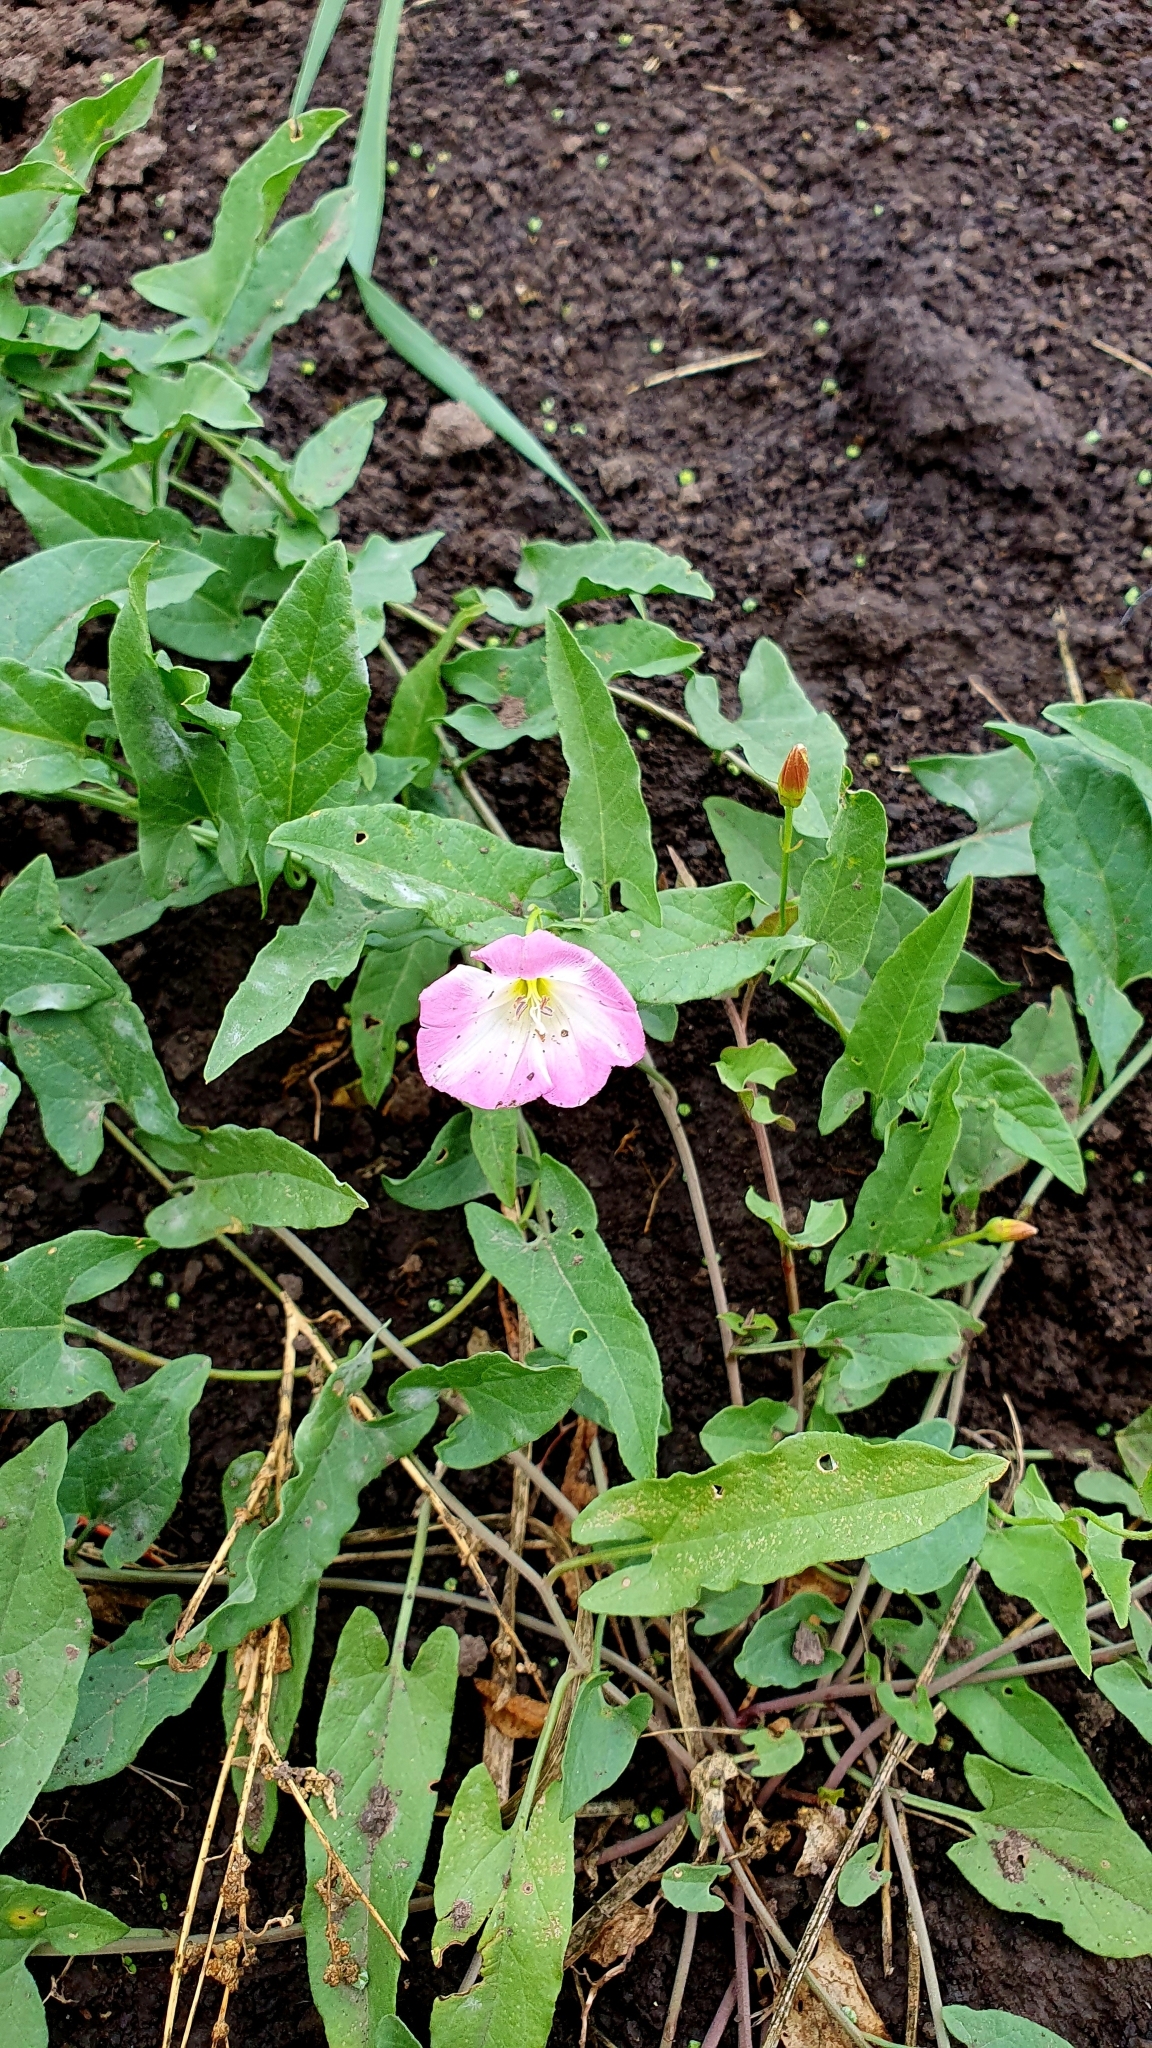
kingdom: Plantae
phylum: Tracheophyta
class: Magnoliopsida
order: Solanales
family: Convolvulaceae
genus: Convolvulus
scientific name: Convolvulus arvensis
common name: Field bindweed
